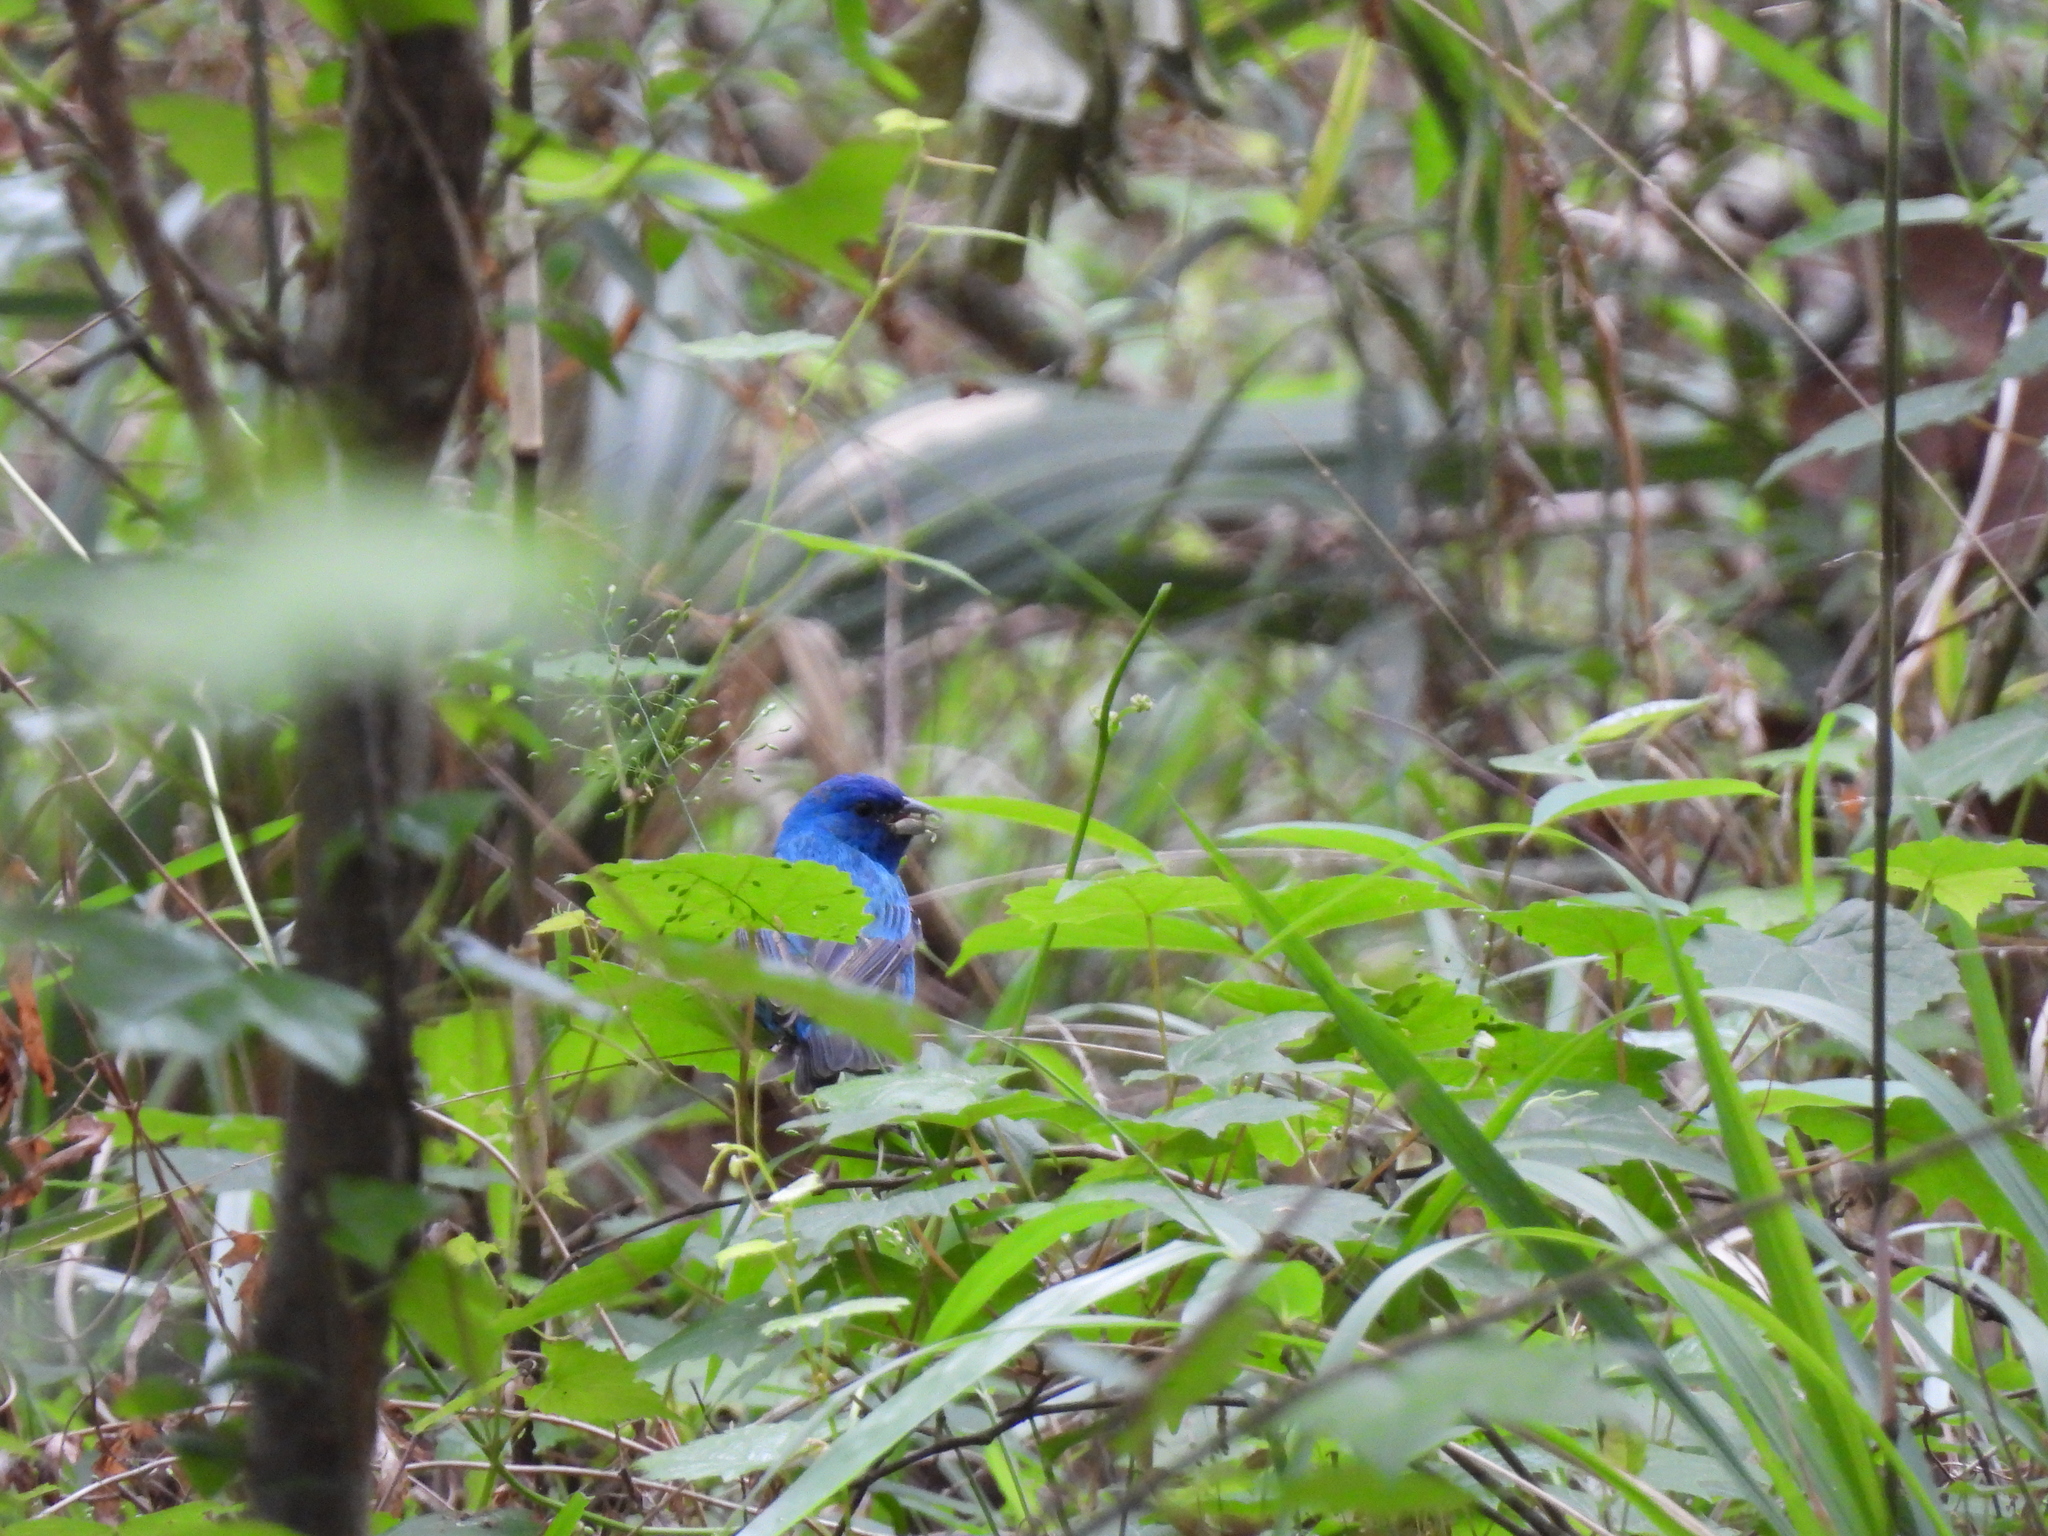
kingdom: Animalia
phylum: Chordata
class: Aves
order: Passeriformes
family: Cardinalidae
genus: Passerina
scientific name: Passerina cyanea
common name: Indigo bunting
